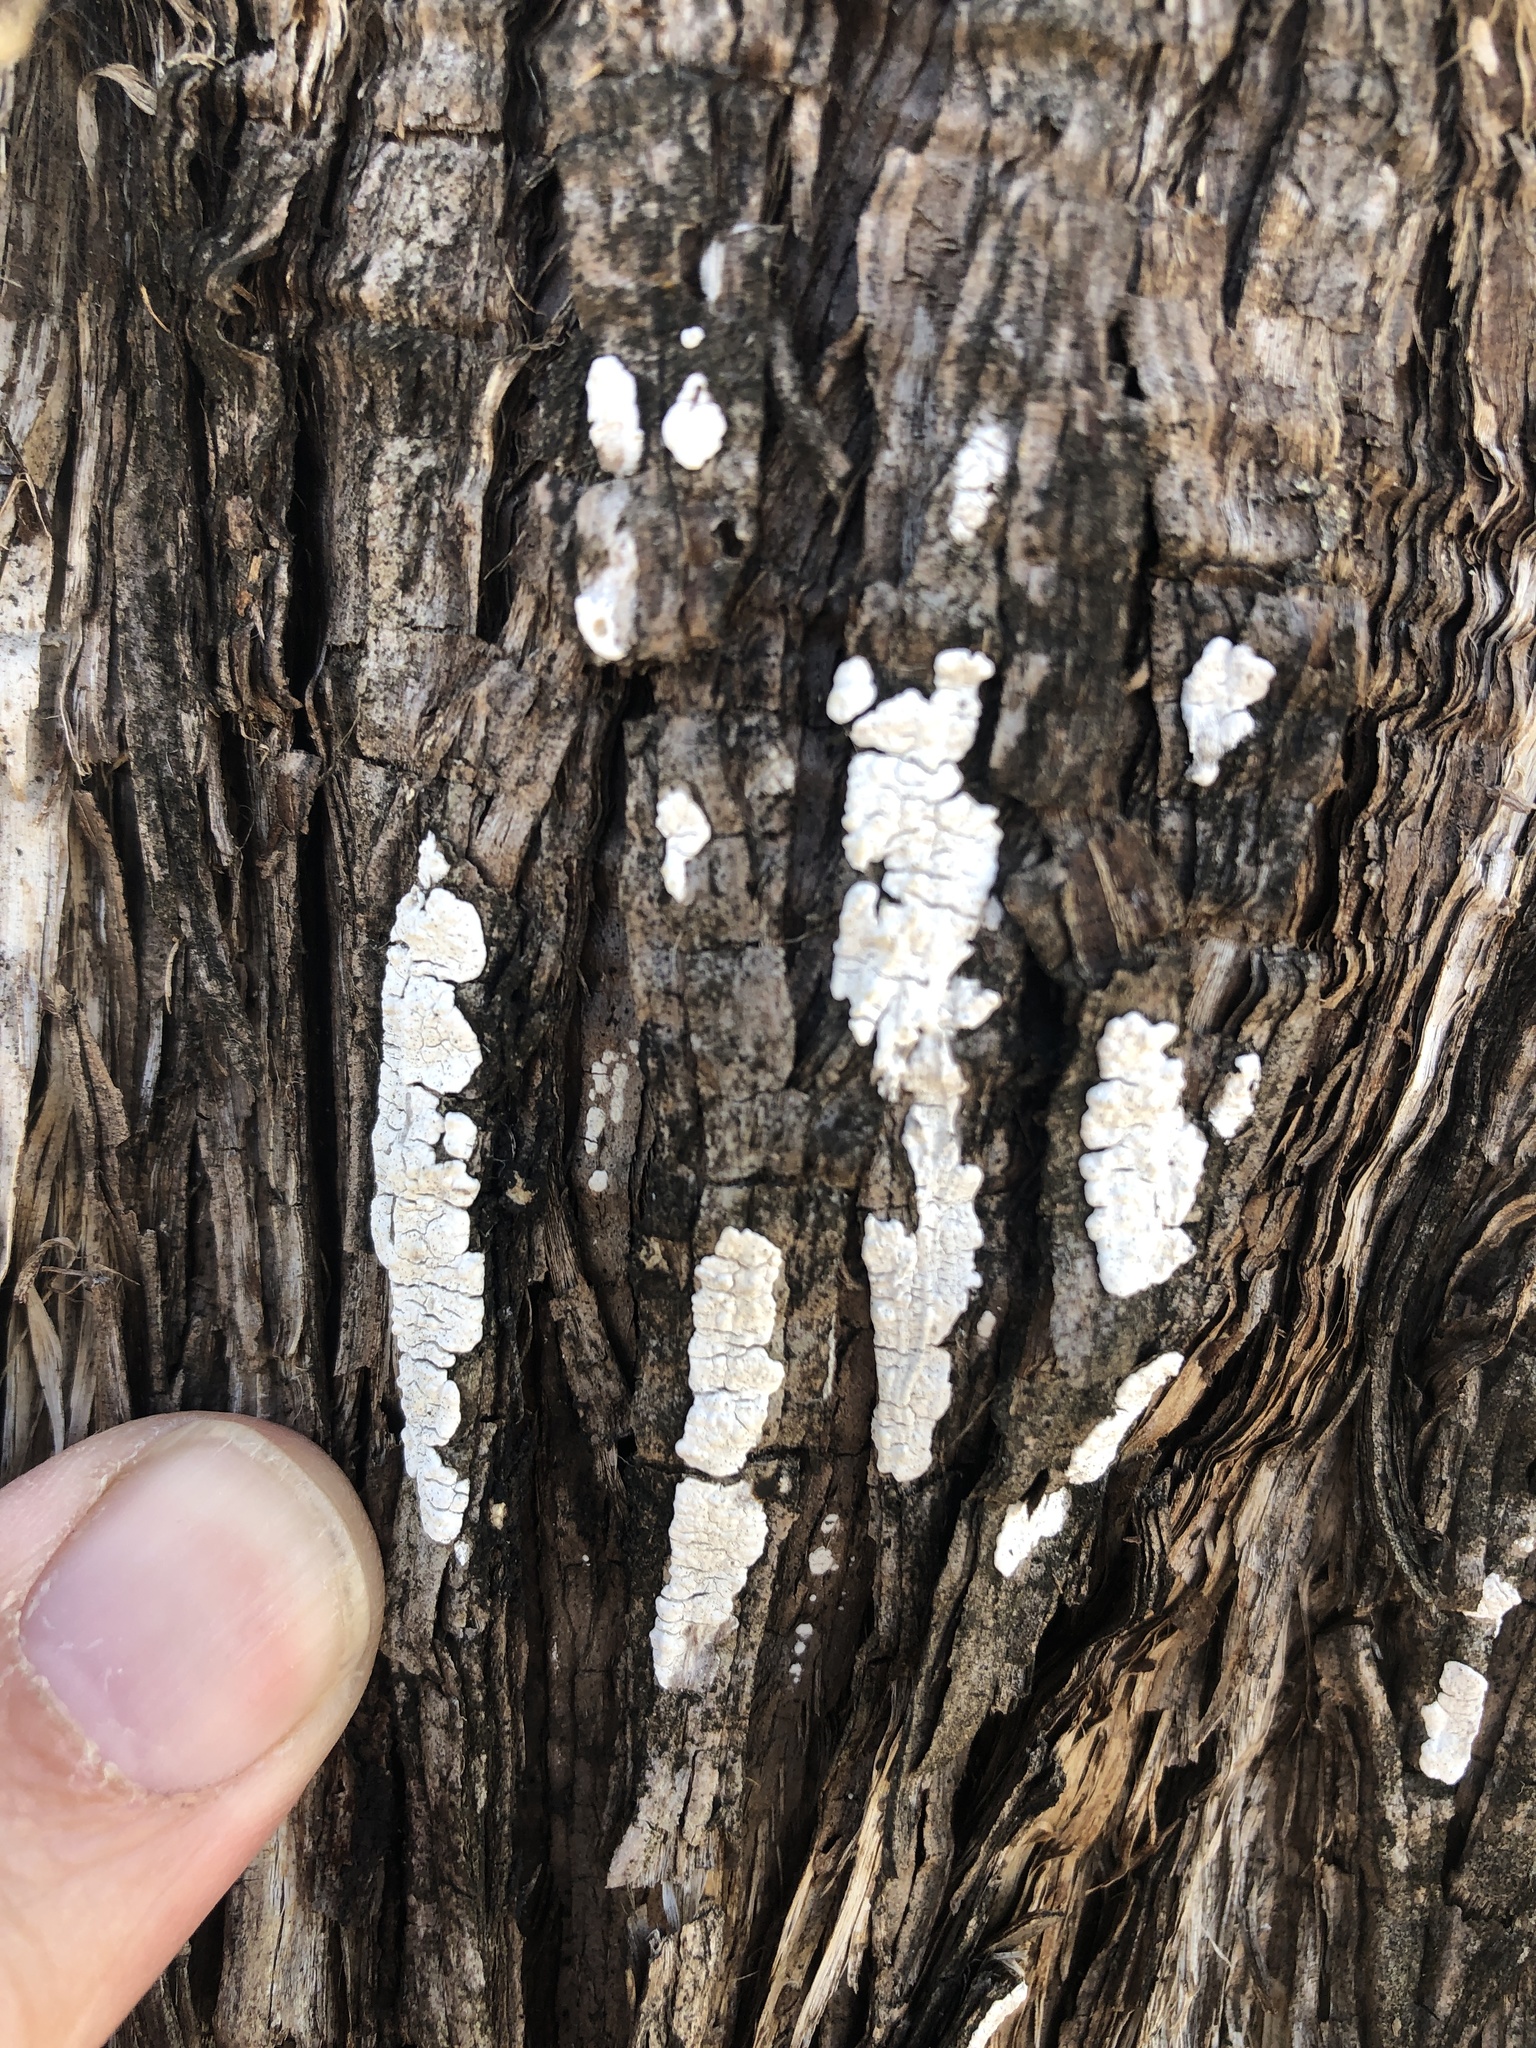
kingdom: Fungi
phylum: Basidiomycota
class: Agaricomycetes
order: Agaricales
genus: Dendrothele
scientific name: Dendrothele nivosa
